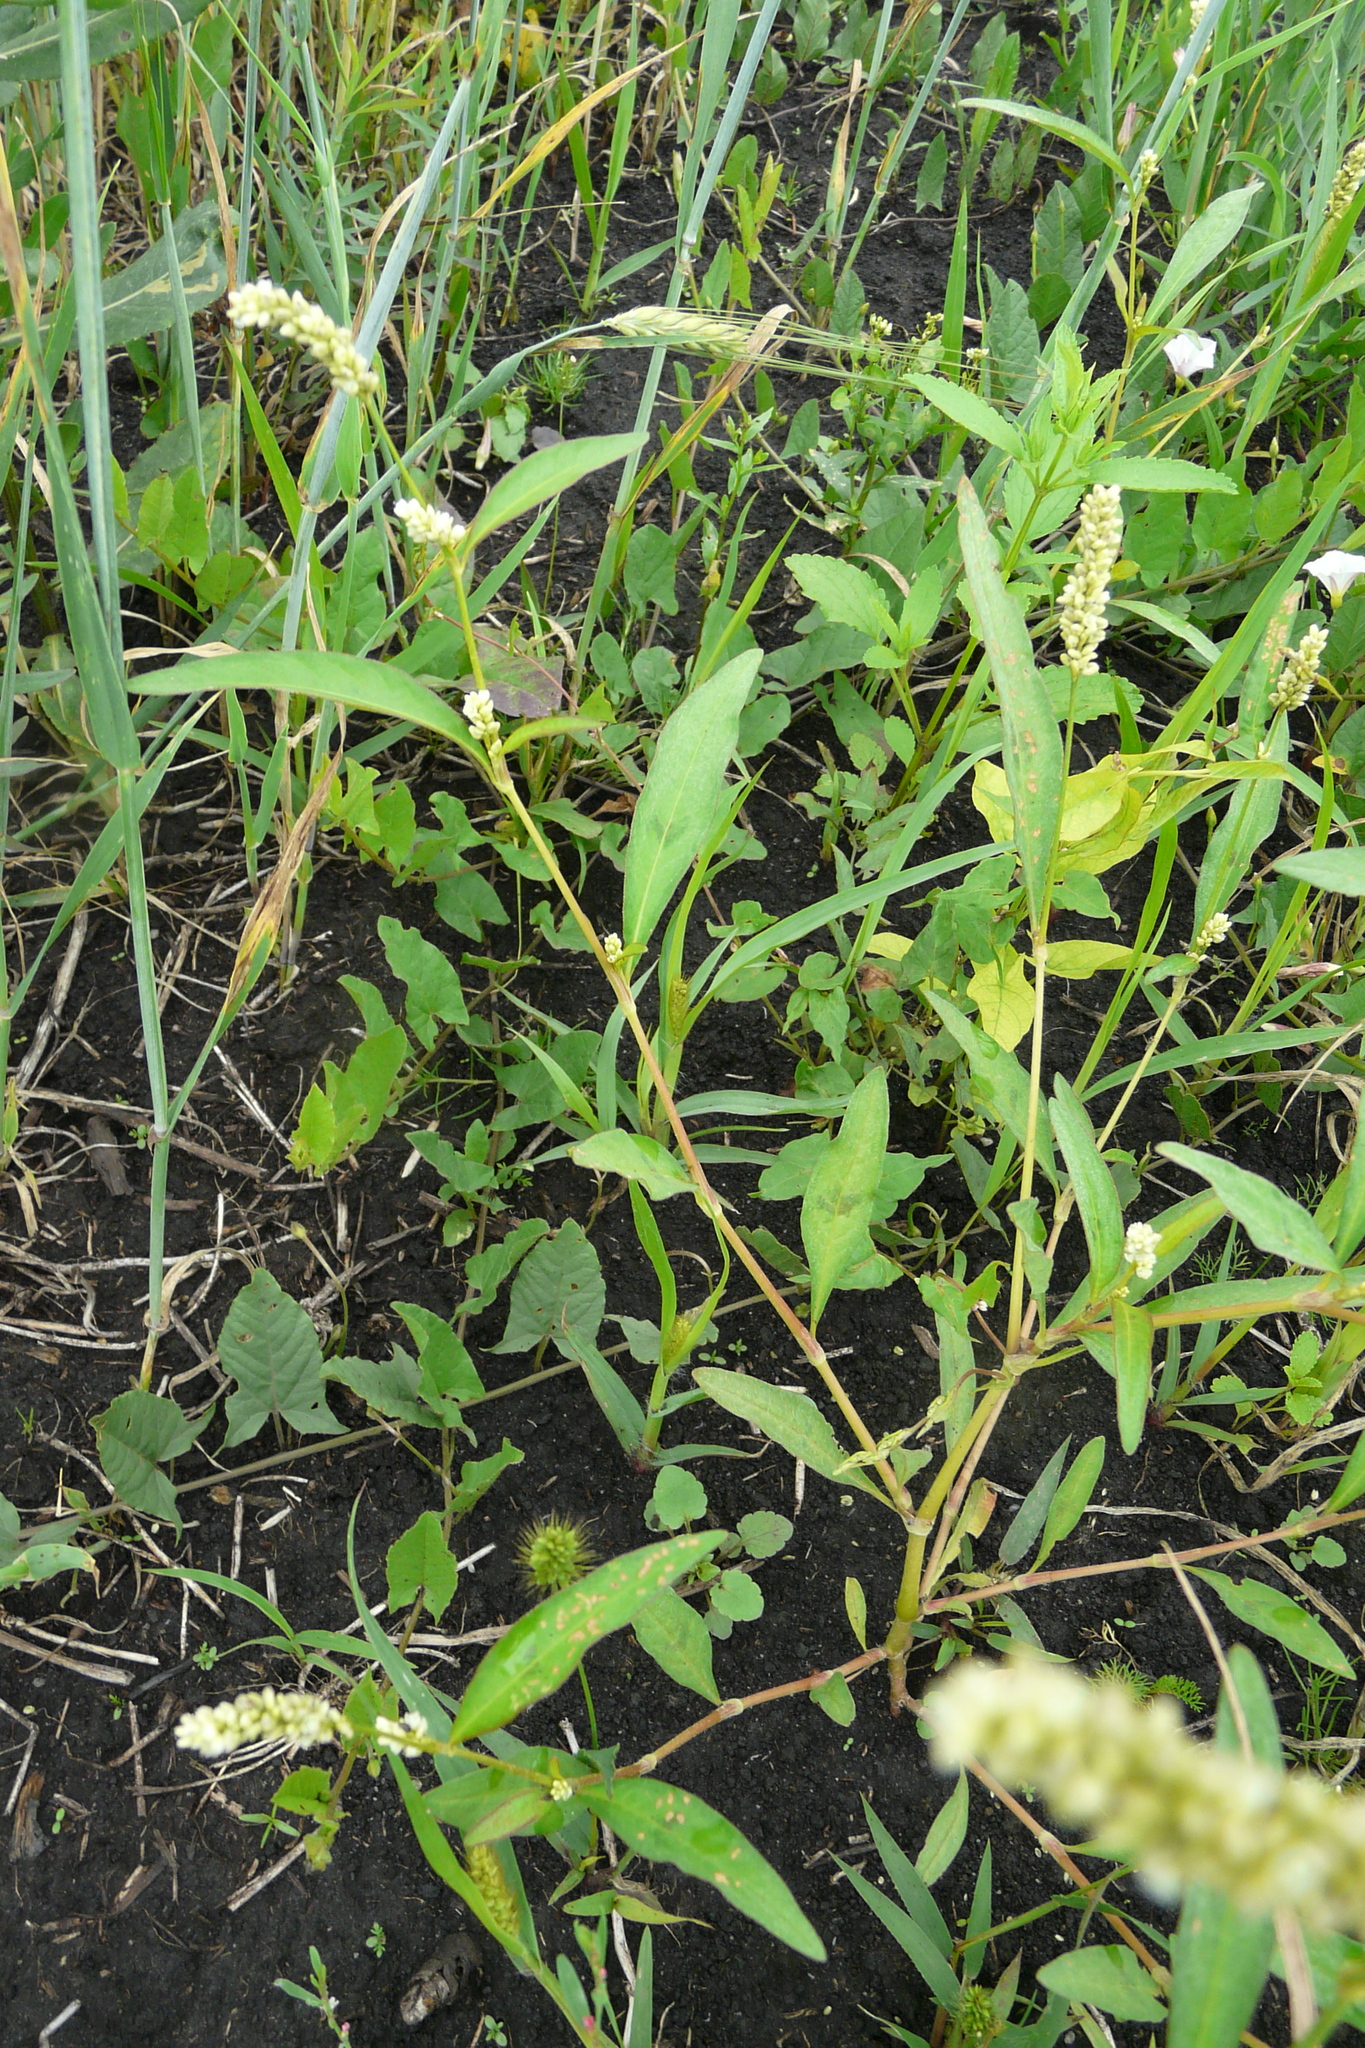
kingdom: Plantae
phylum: Tracheophyta
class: Magnoliopsida
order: Caryophyllales
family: Polygonaceae
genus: Persicaria
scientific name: Persicaria lapathifolia
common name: Curlytop knotweed
